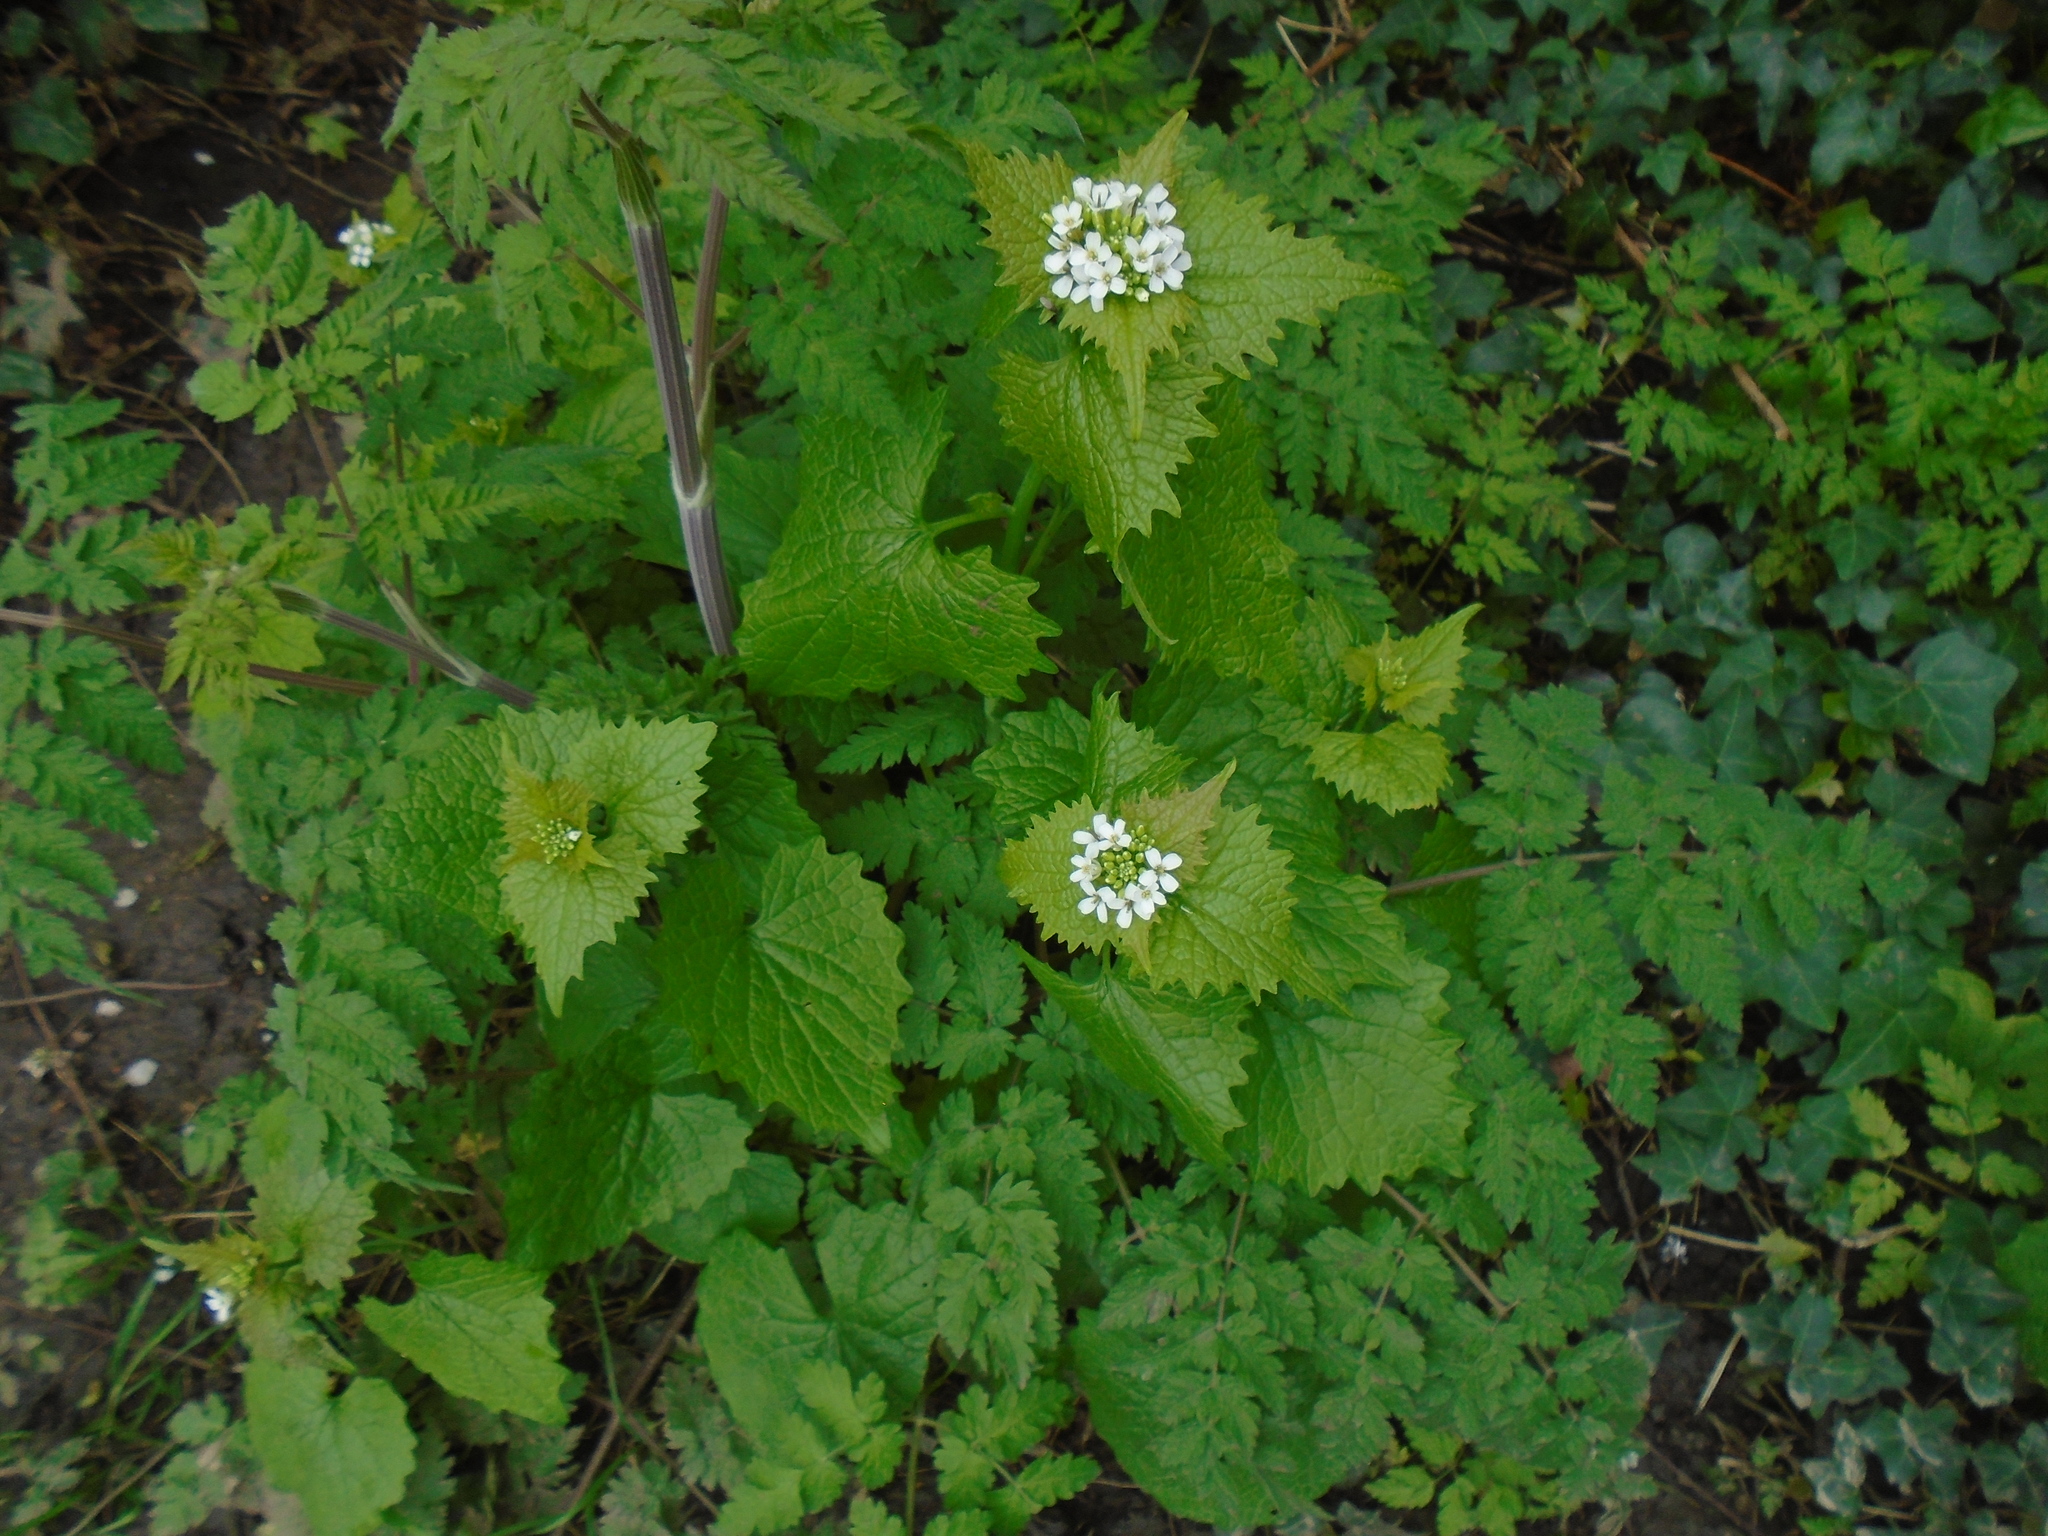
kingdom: Plantae
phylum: Tracheophyta
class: Magnoliopsida
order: Brassicales
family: Brassicaceae
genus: Alliaria
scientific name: Alliaria petiolata
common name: Garlic mustard
